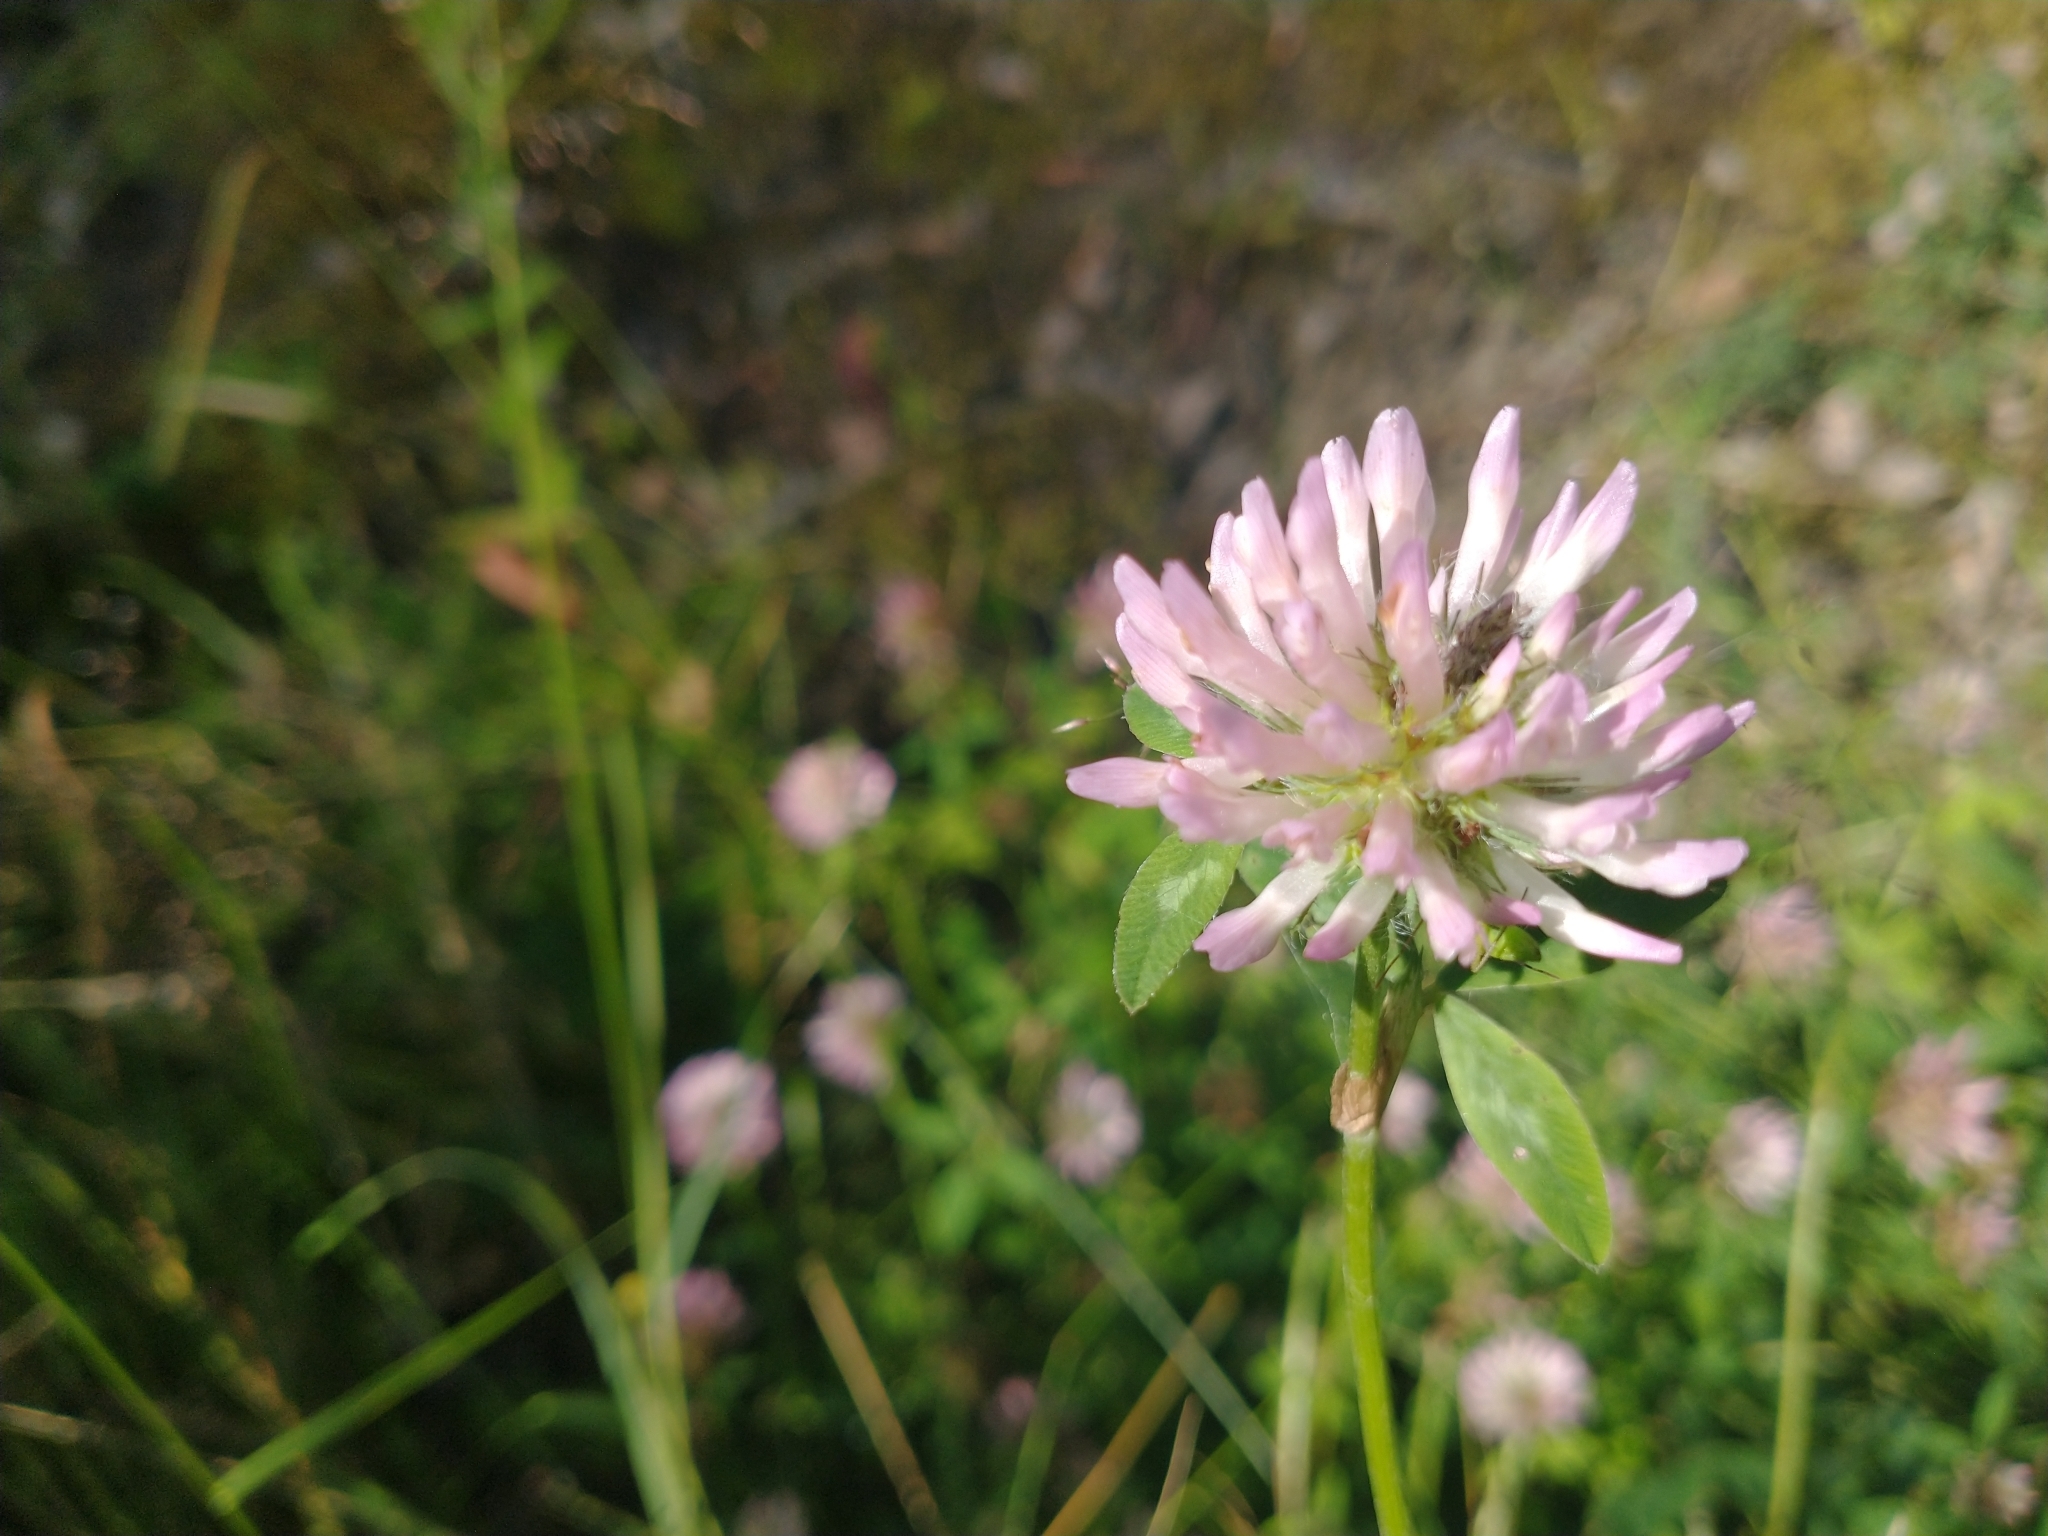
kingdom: Plantae
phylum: Tracheophyta
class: Magnoliopsida
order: Fabales
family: Fabaceae
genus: Trifolium
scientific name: Trifolium pratense
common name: Red clover
